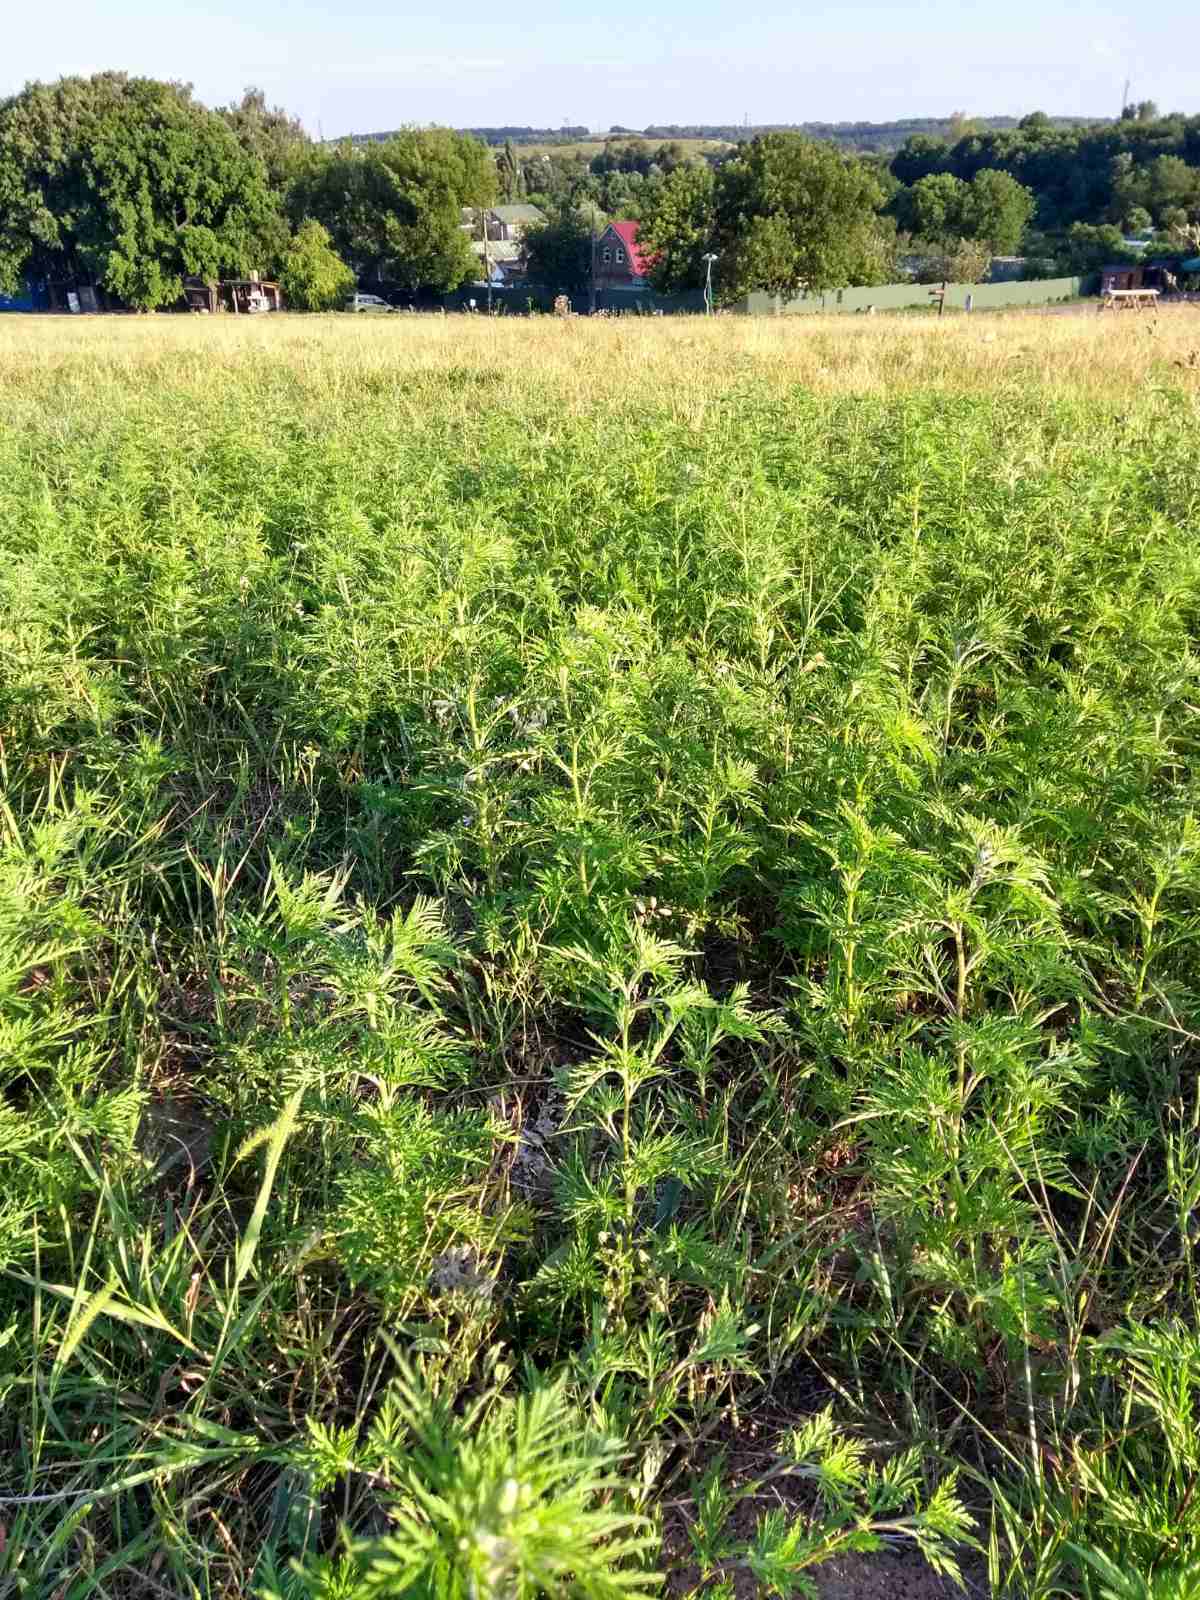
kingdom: Plantae
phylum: Tracheophyta
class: Magnoliopsida
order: Asterales
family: Asteraceae
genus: Ambrosia
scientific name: Ambrosia artemisiifolia
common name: Annual ragweed
